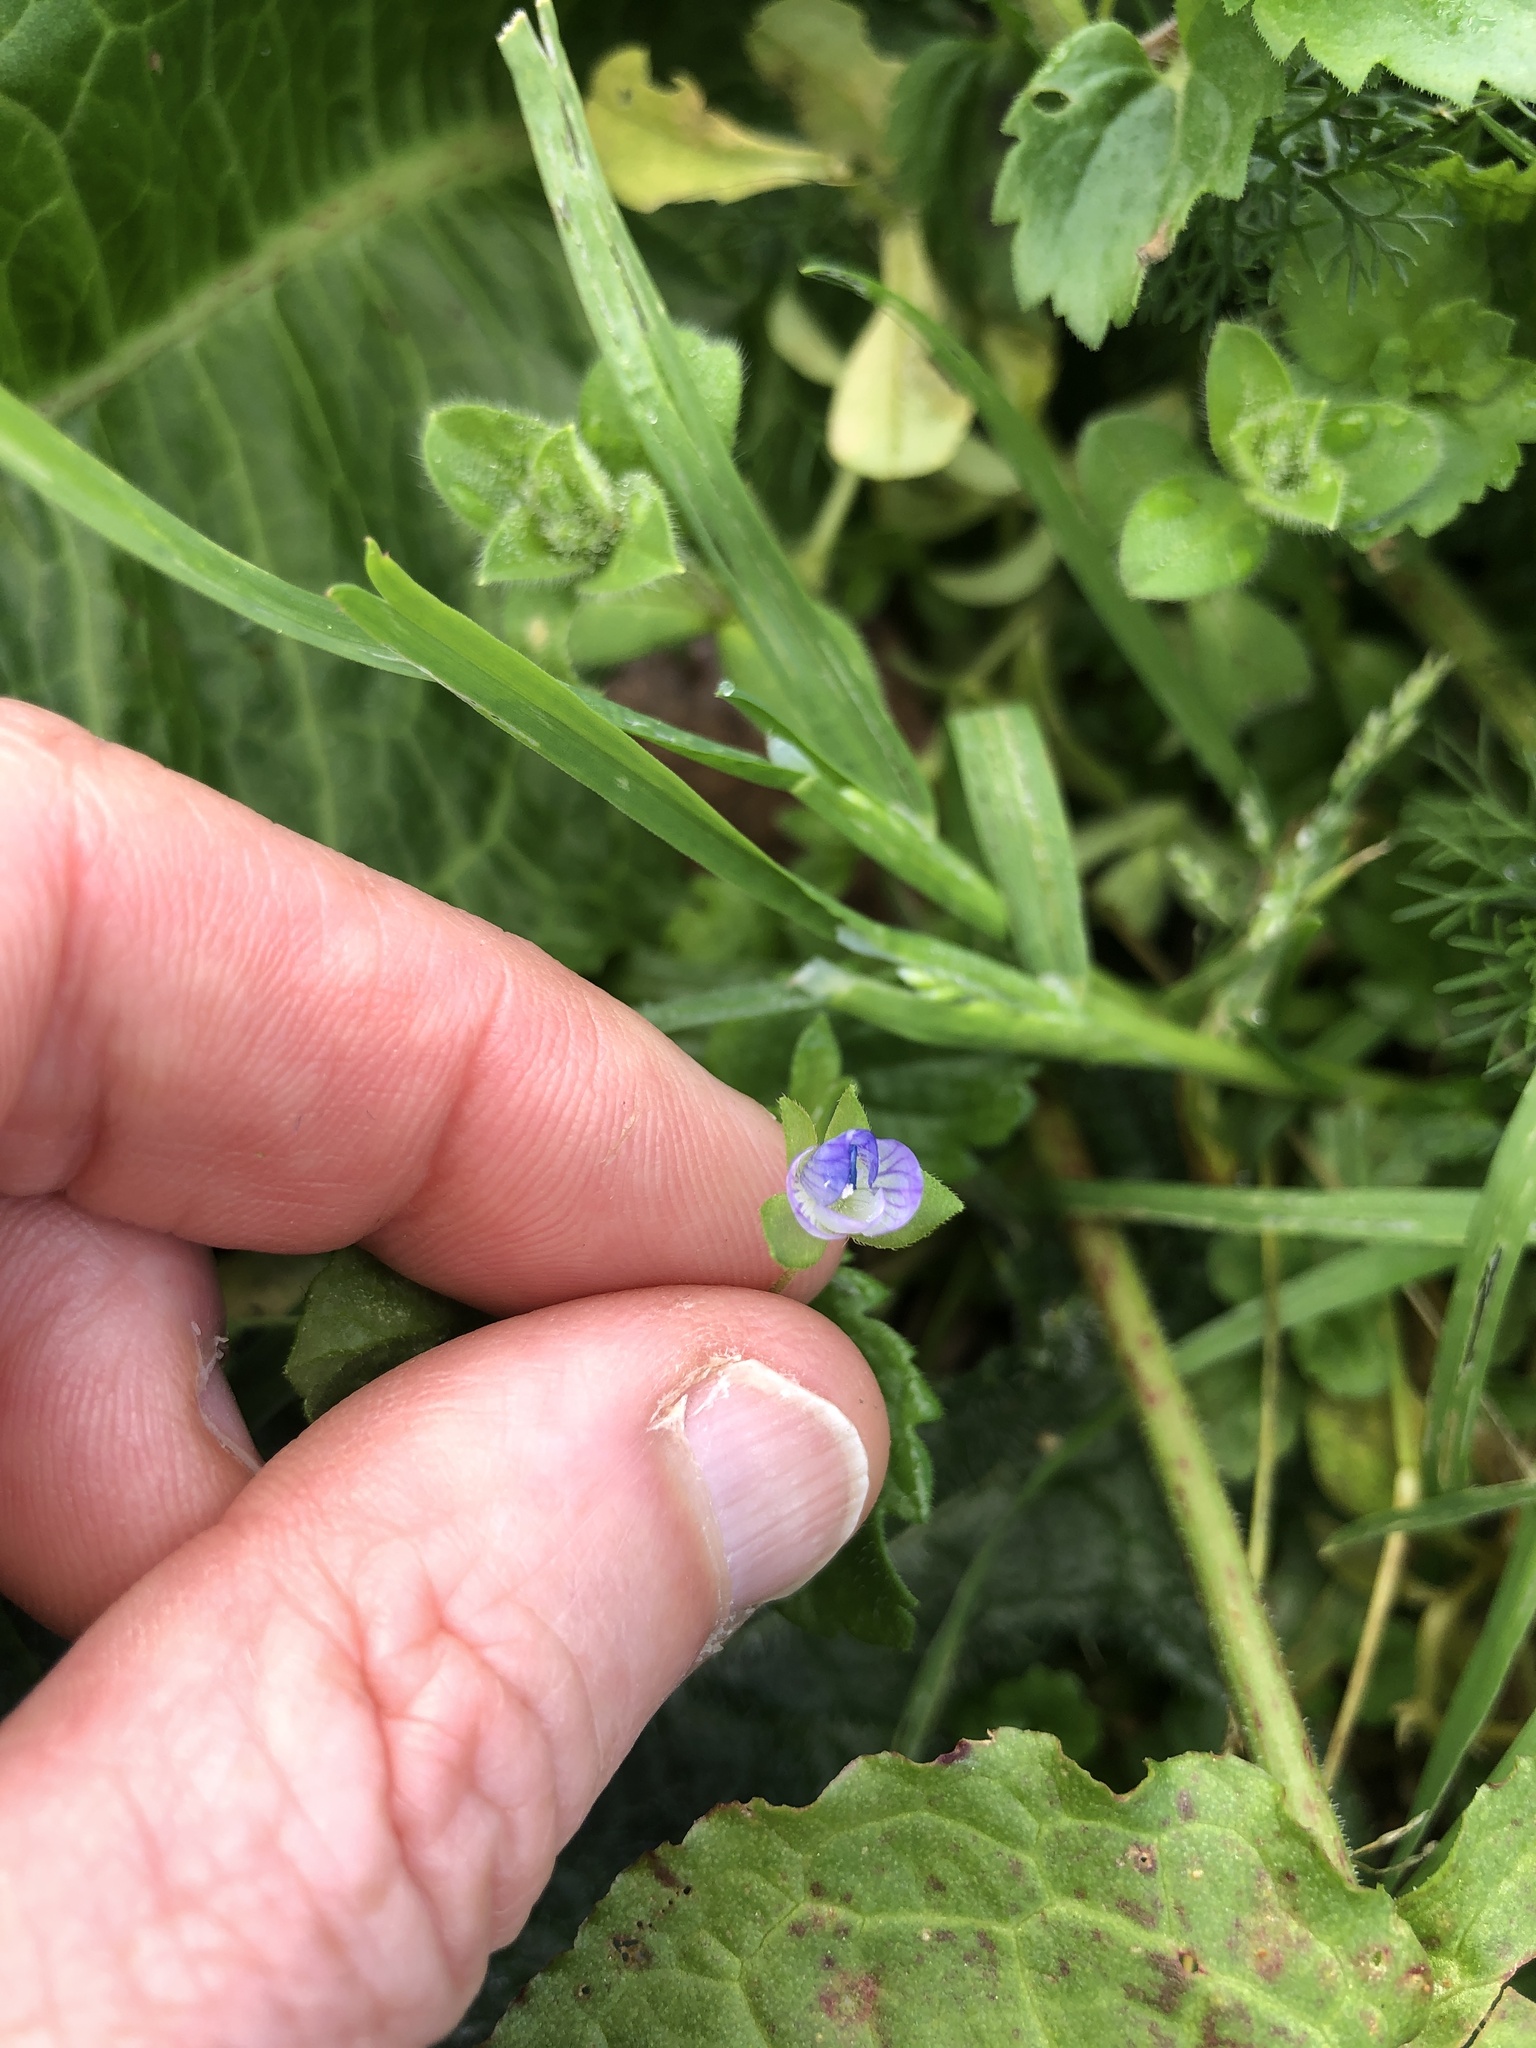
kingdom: Plantae
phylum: Tracheophyta
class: Magnoliopsida
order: Lamiales
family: Plantaginaceae
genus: Veronica
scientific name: Veronica persica
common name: Common field-speedwell
